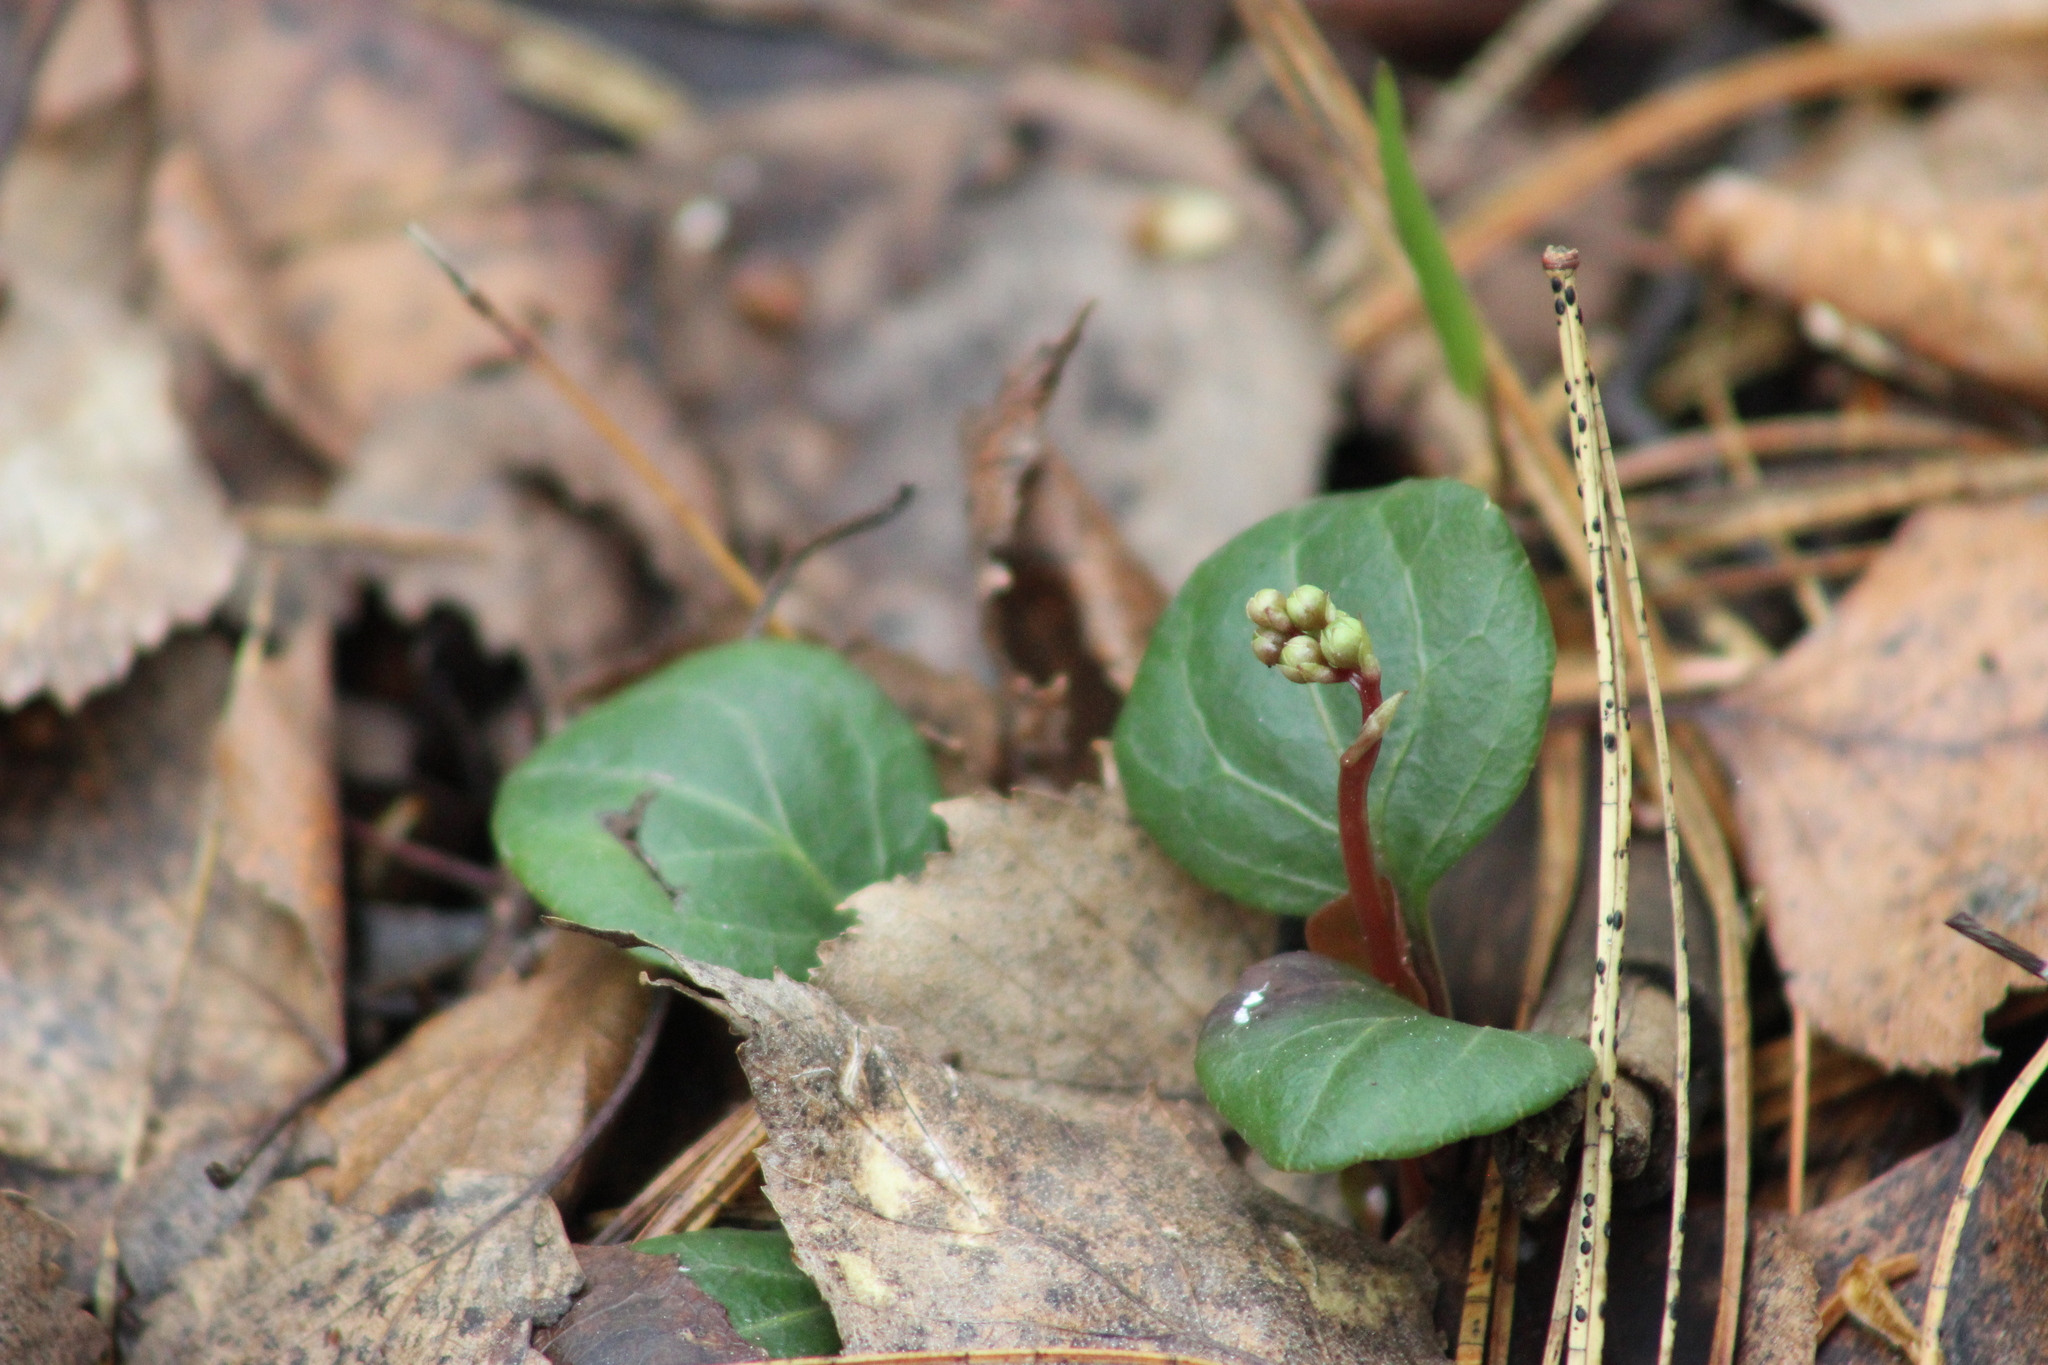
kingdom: Plantae
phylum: Tracheophyta
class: Magnoliopsida
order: Ericales
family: Ericaceae
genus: Pyrola
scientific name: Pyrola chlorantha
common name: Green wintergreen
